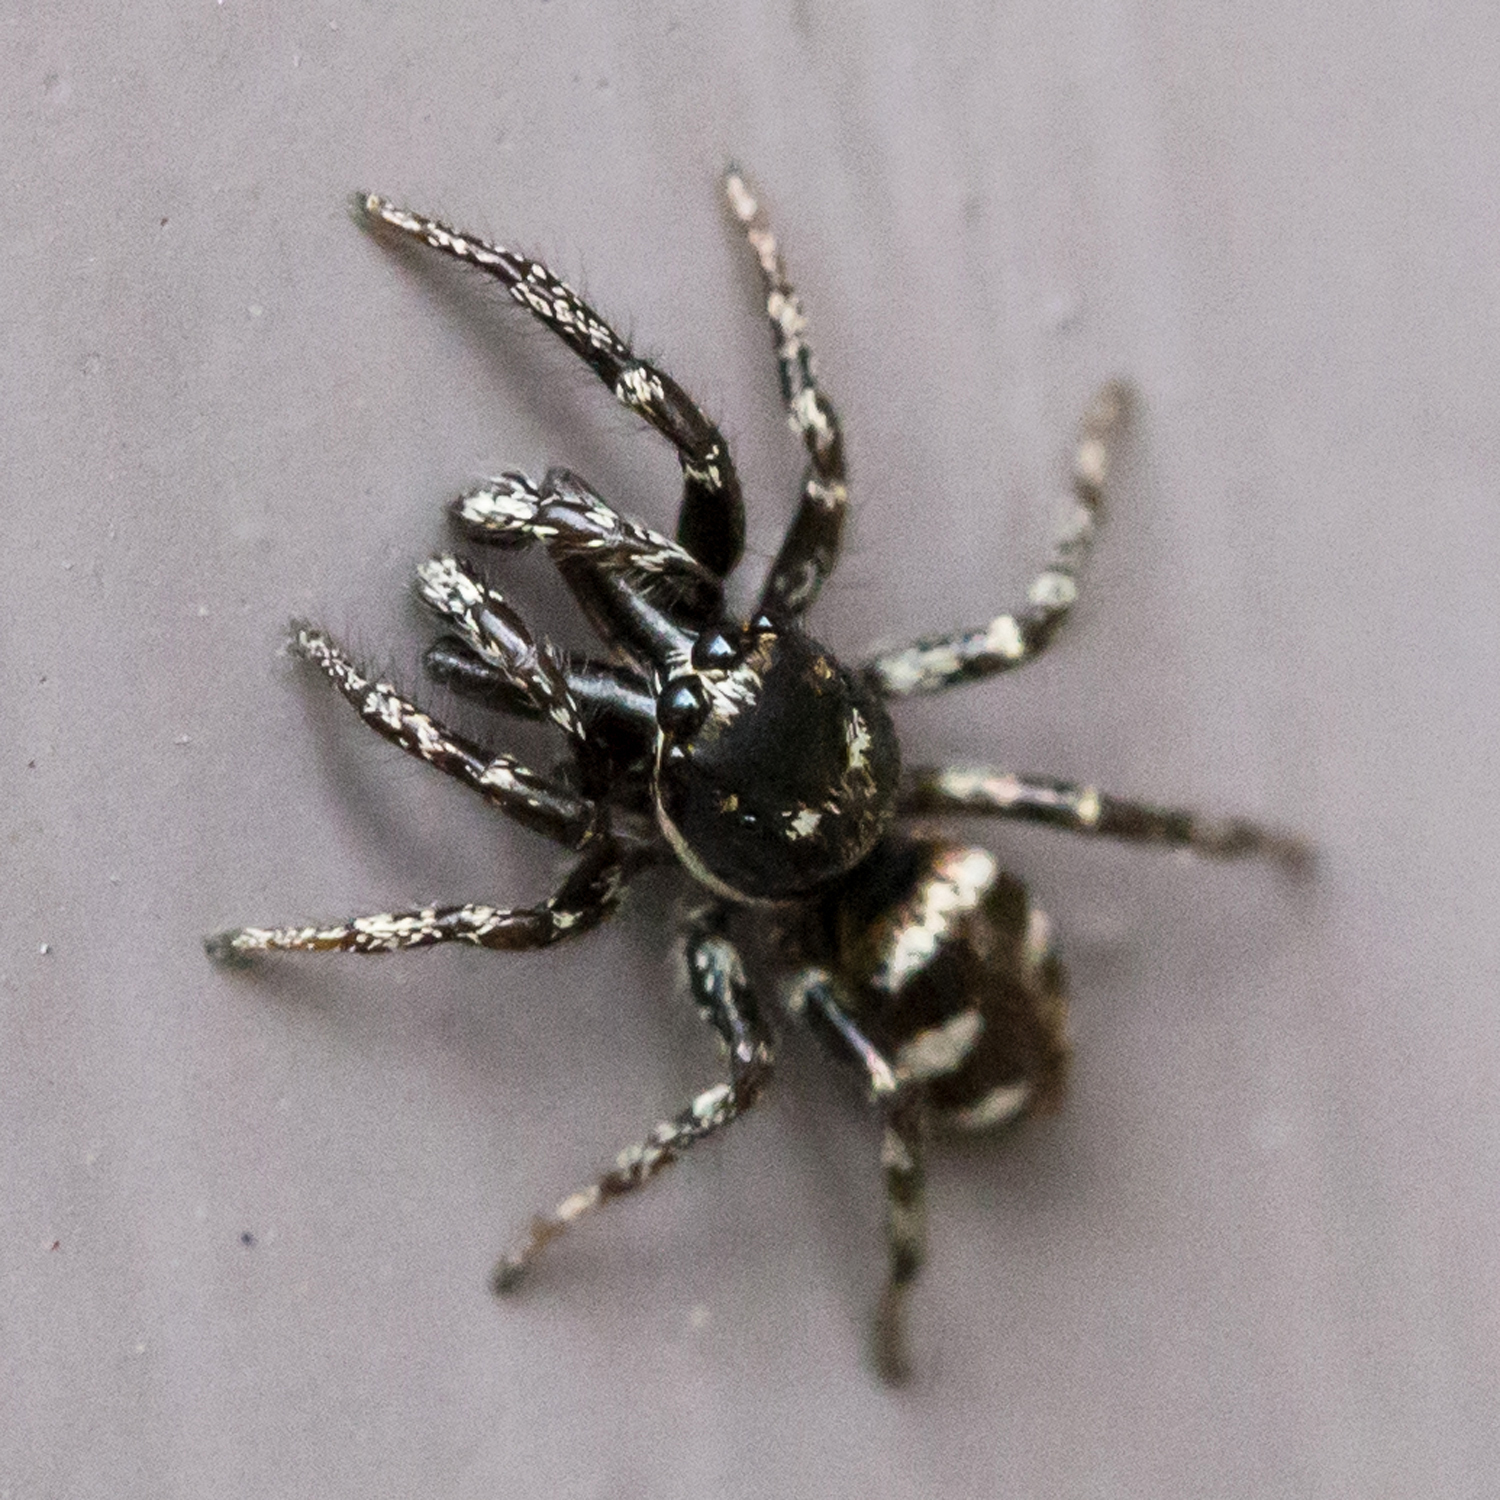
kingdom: Animalia
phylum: Arthropoda
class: Arachnida
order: Araneae
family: Salticidae
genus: Salticus
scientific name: Salticus scenicus
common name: Zebra jumper
